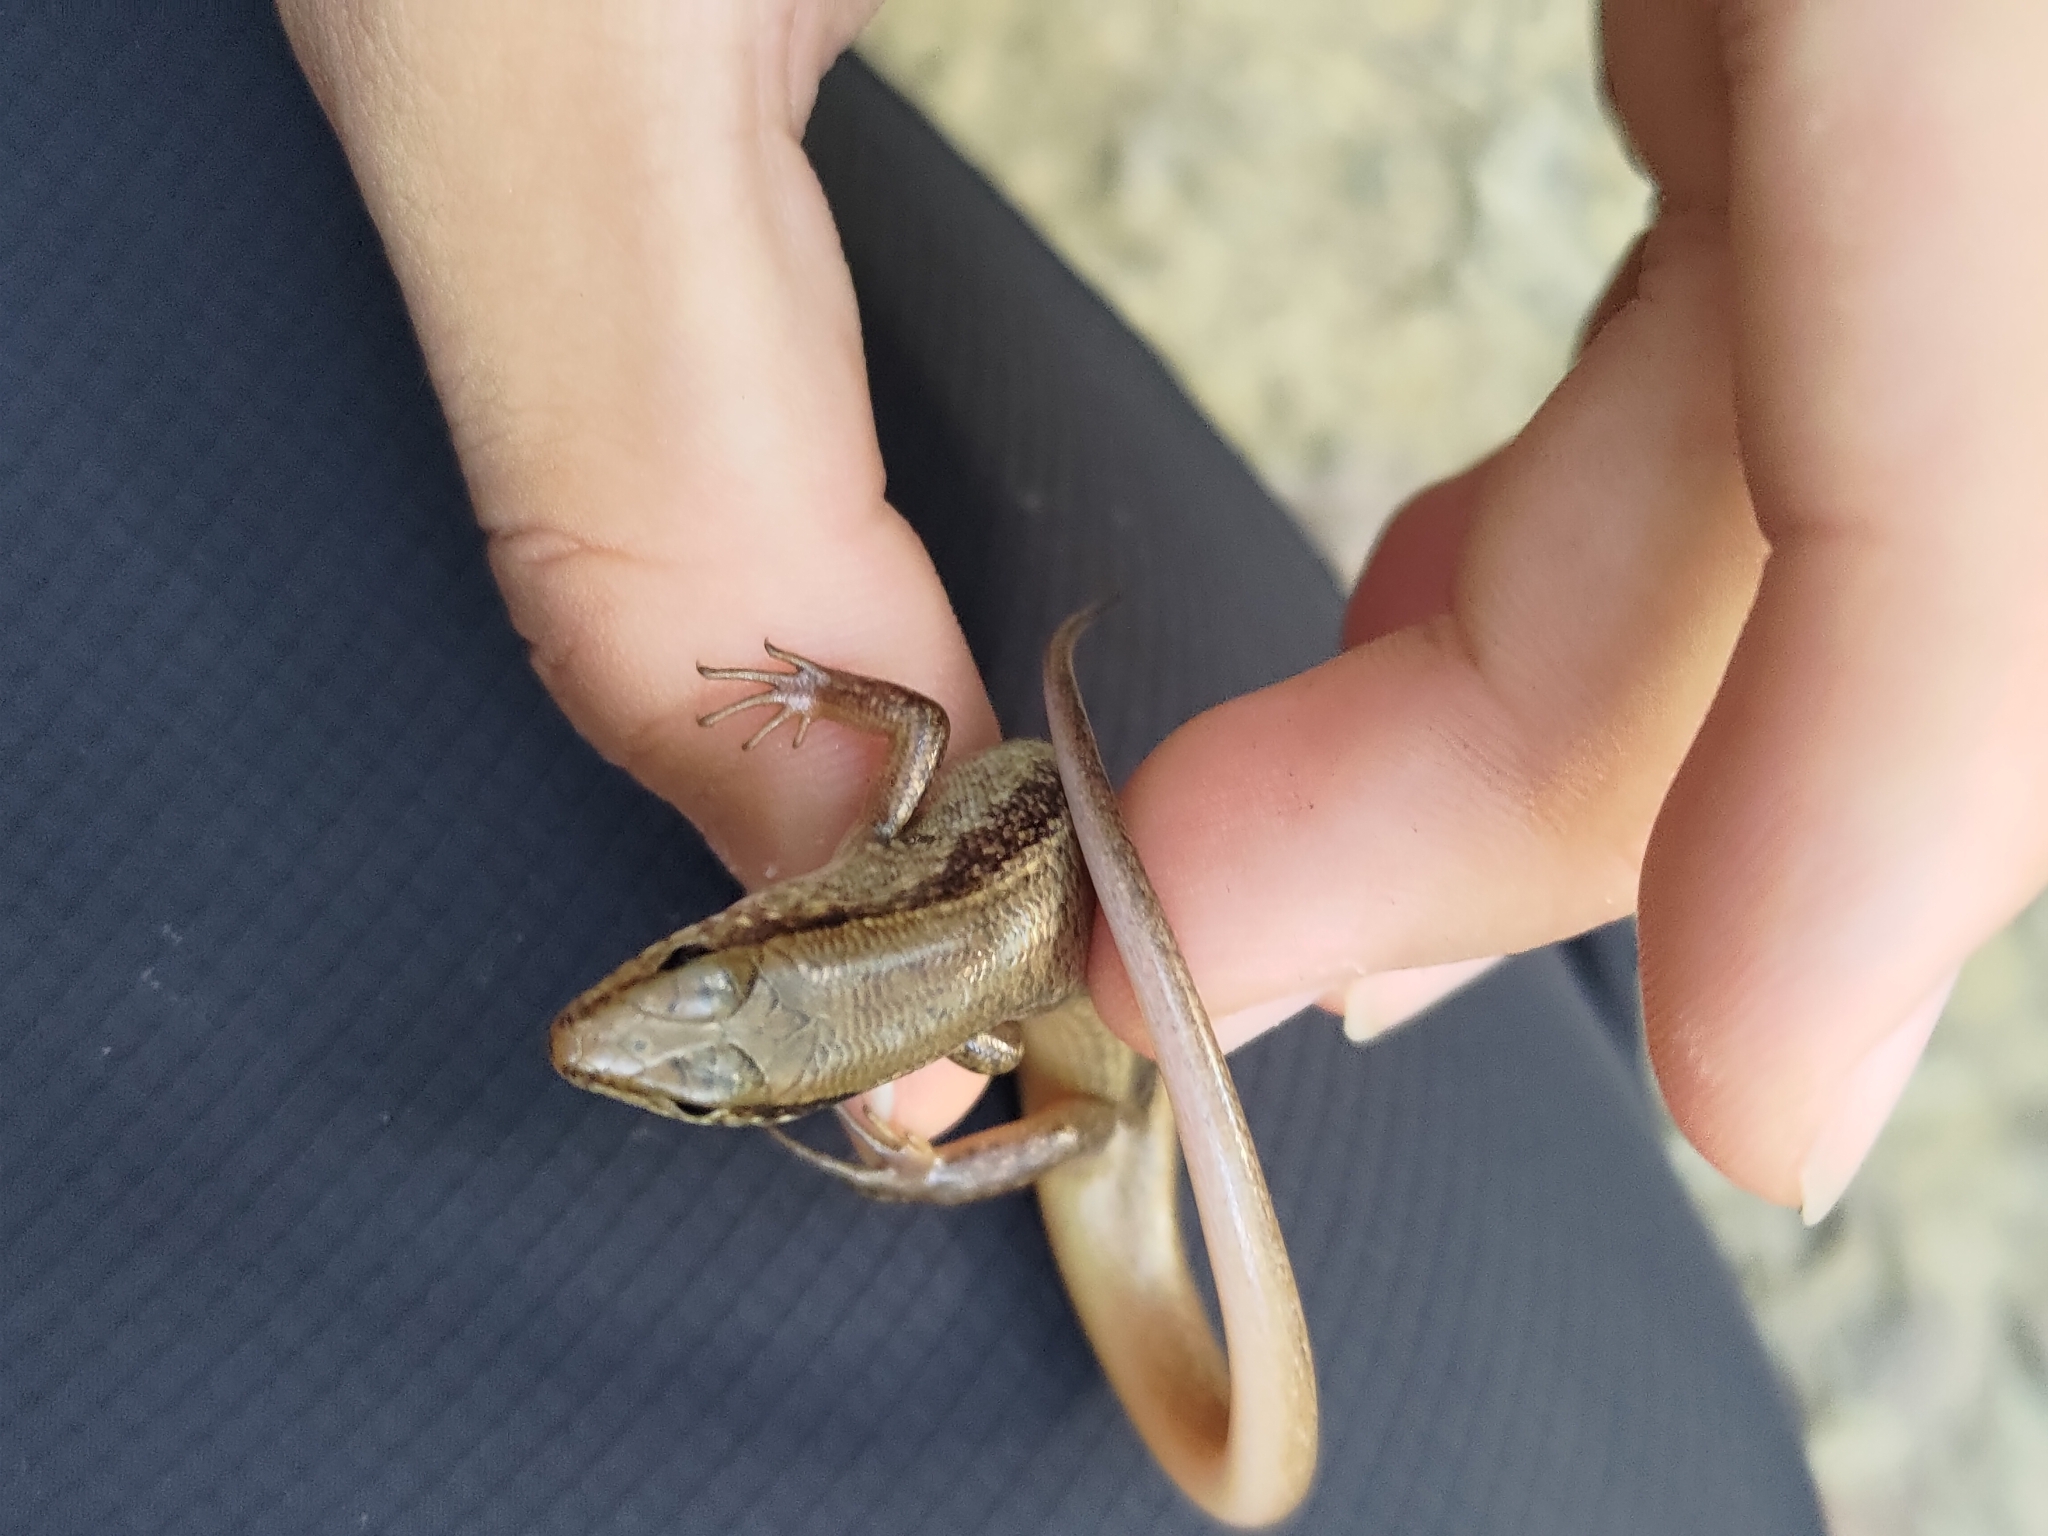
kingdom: Animalia
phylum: Chordata
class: Squamata
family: Scincidae
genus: Sphenomorphus
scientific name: Sphenomorphus indicus
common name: Himalayan forest skink
